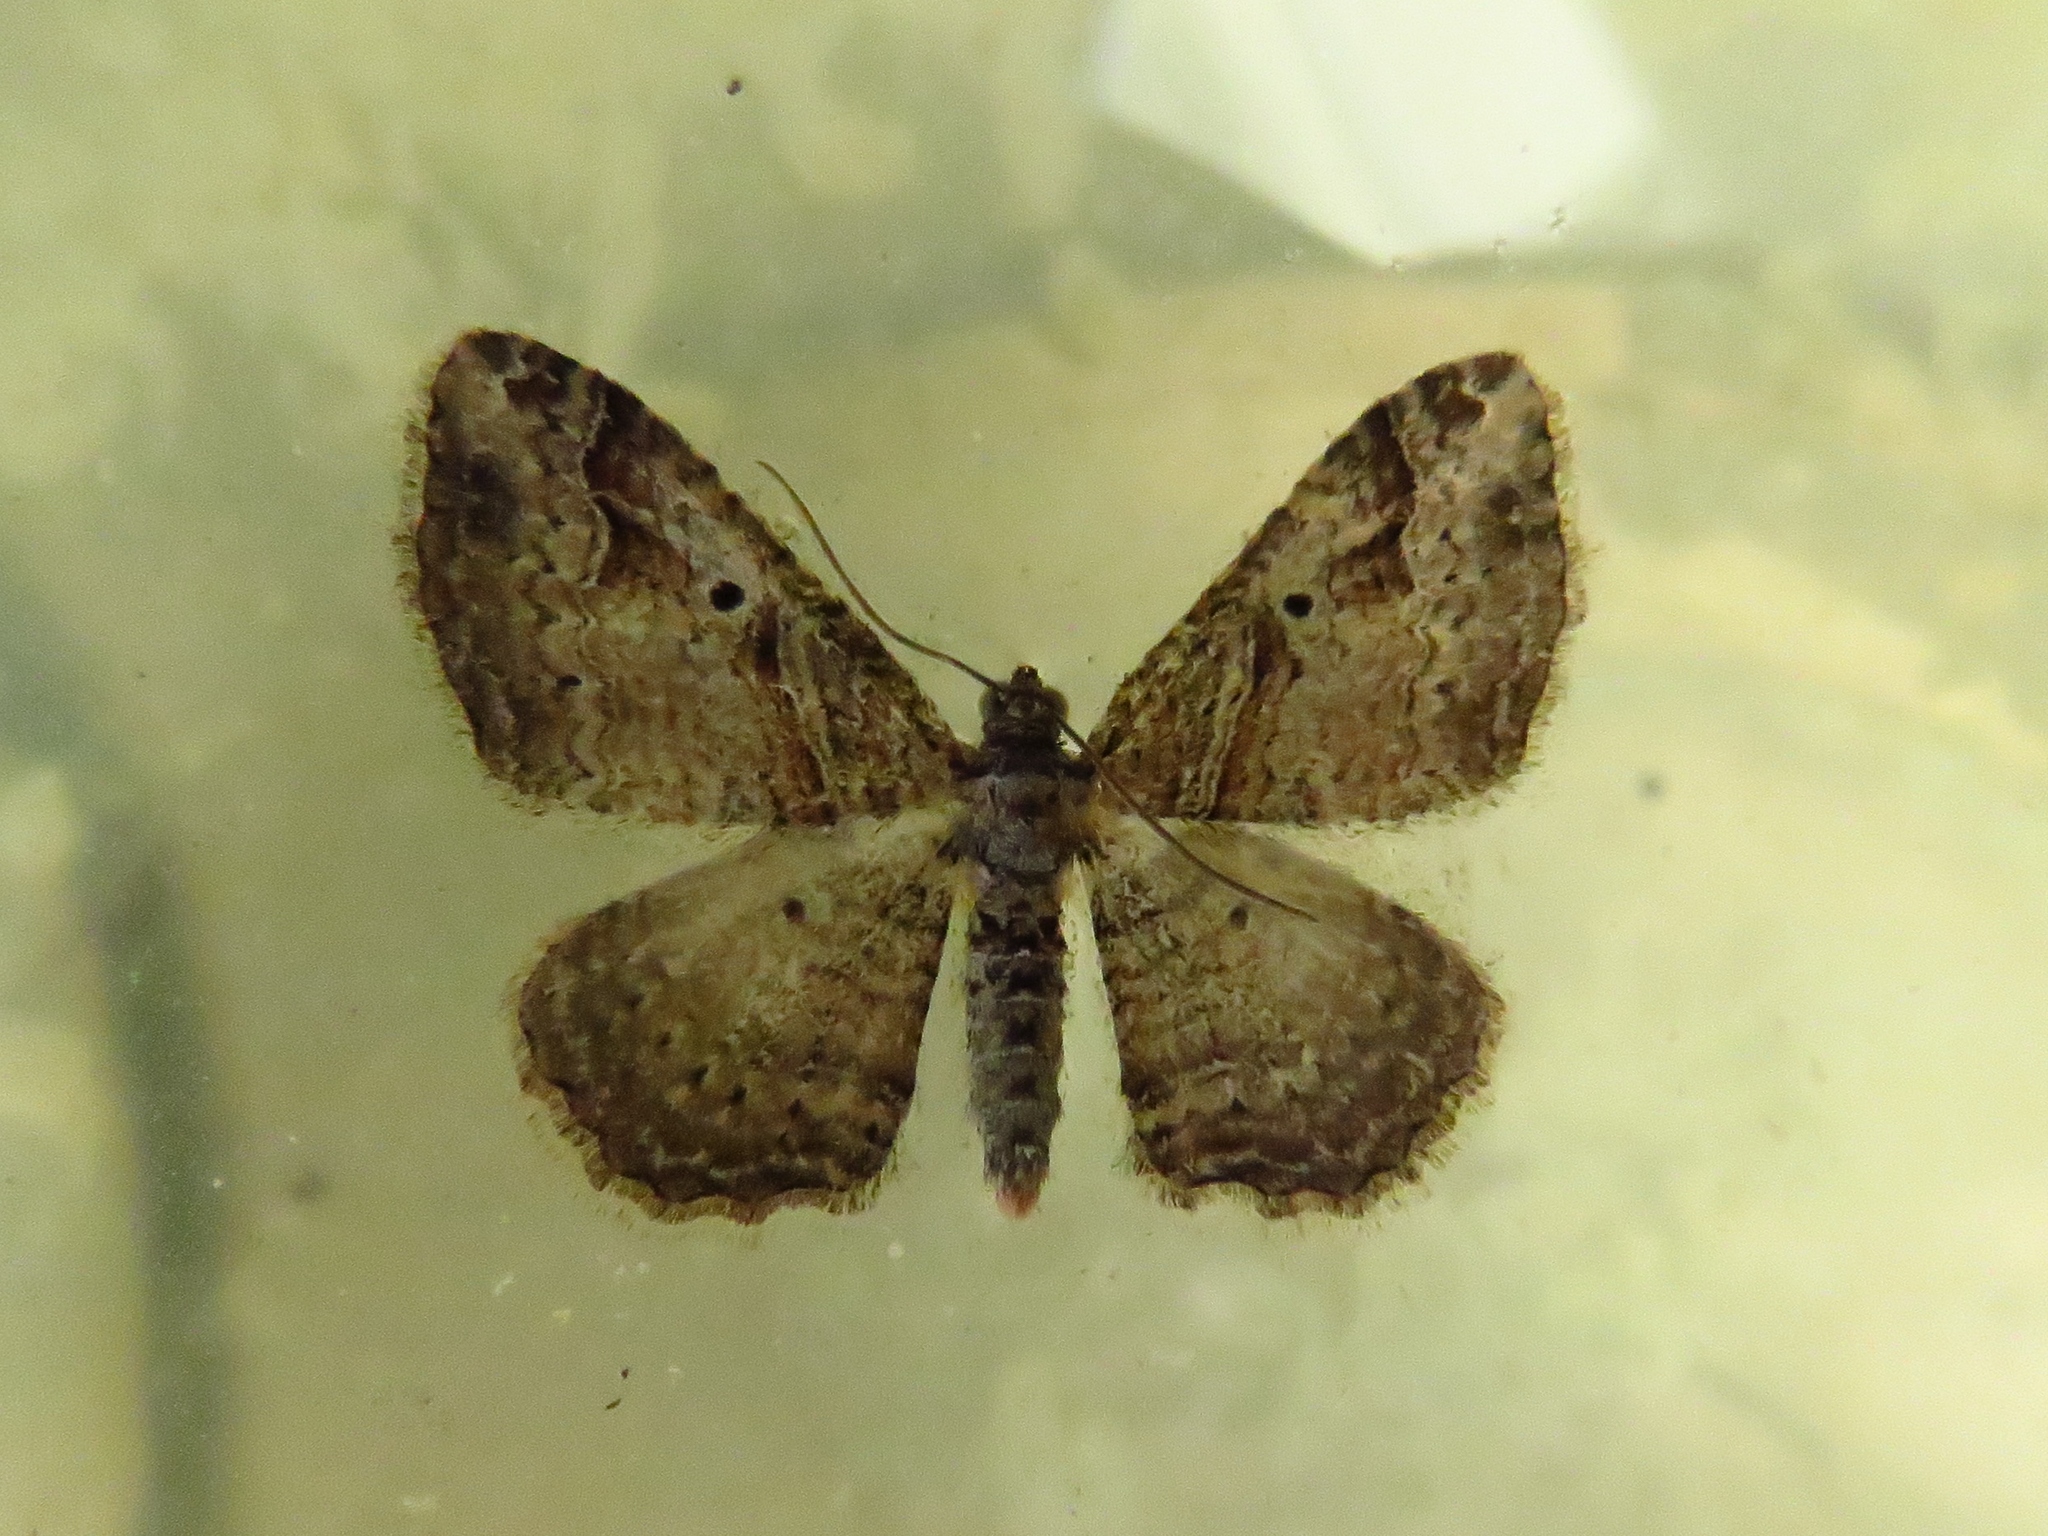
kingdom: Animalia
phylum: Arthropoda
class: Insecta
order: Lepidoptera
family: Geometridae
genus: Costaconvexa
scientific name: Costaconvexa centrostrigaria
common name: Bent-line carpet
